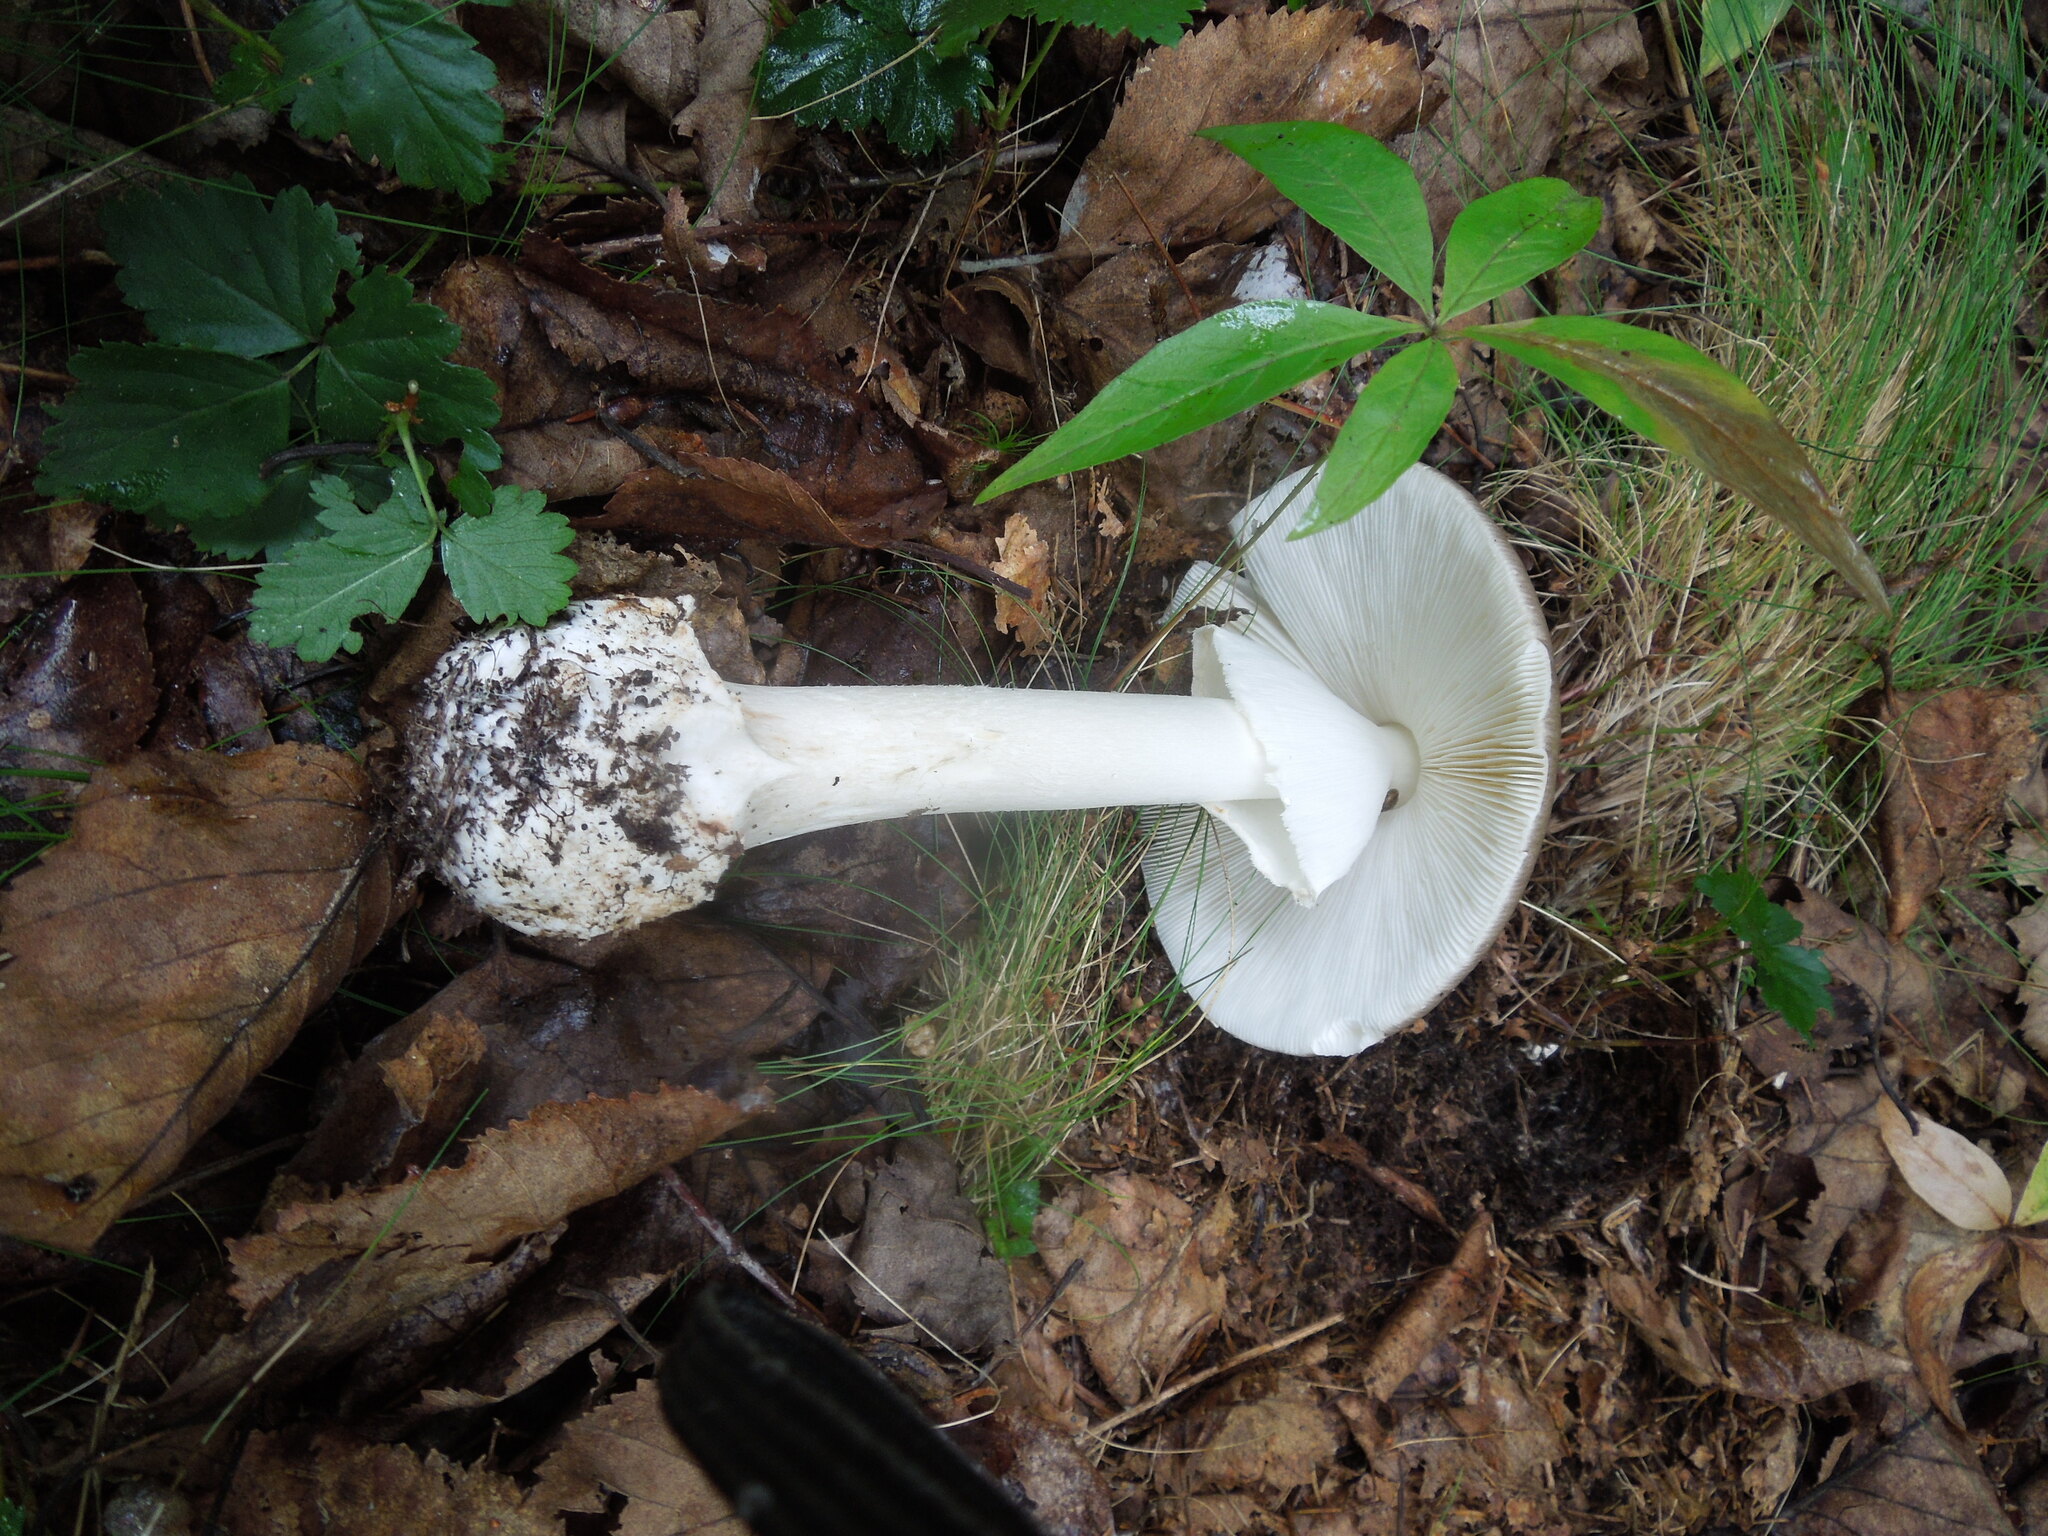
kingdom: Fungi
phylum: Basidiomycota
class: Agaricomycetes
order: Agaricales
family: Amanitaceae
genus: Amanita
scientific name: Amanita submaculata
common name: Ball gown amanita
